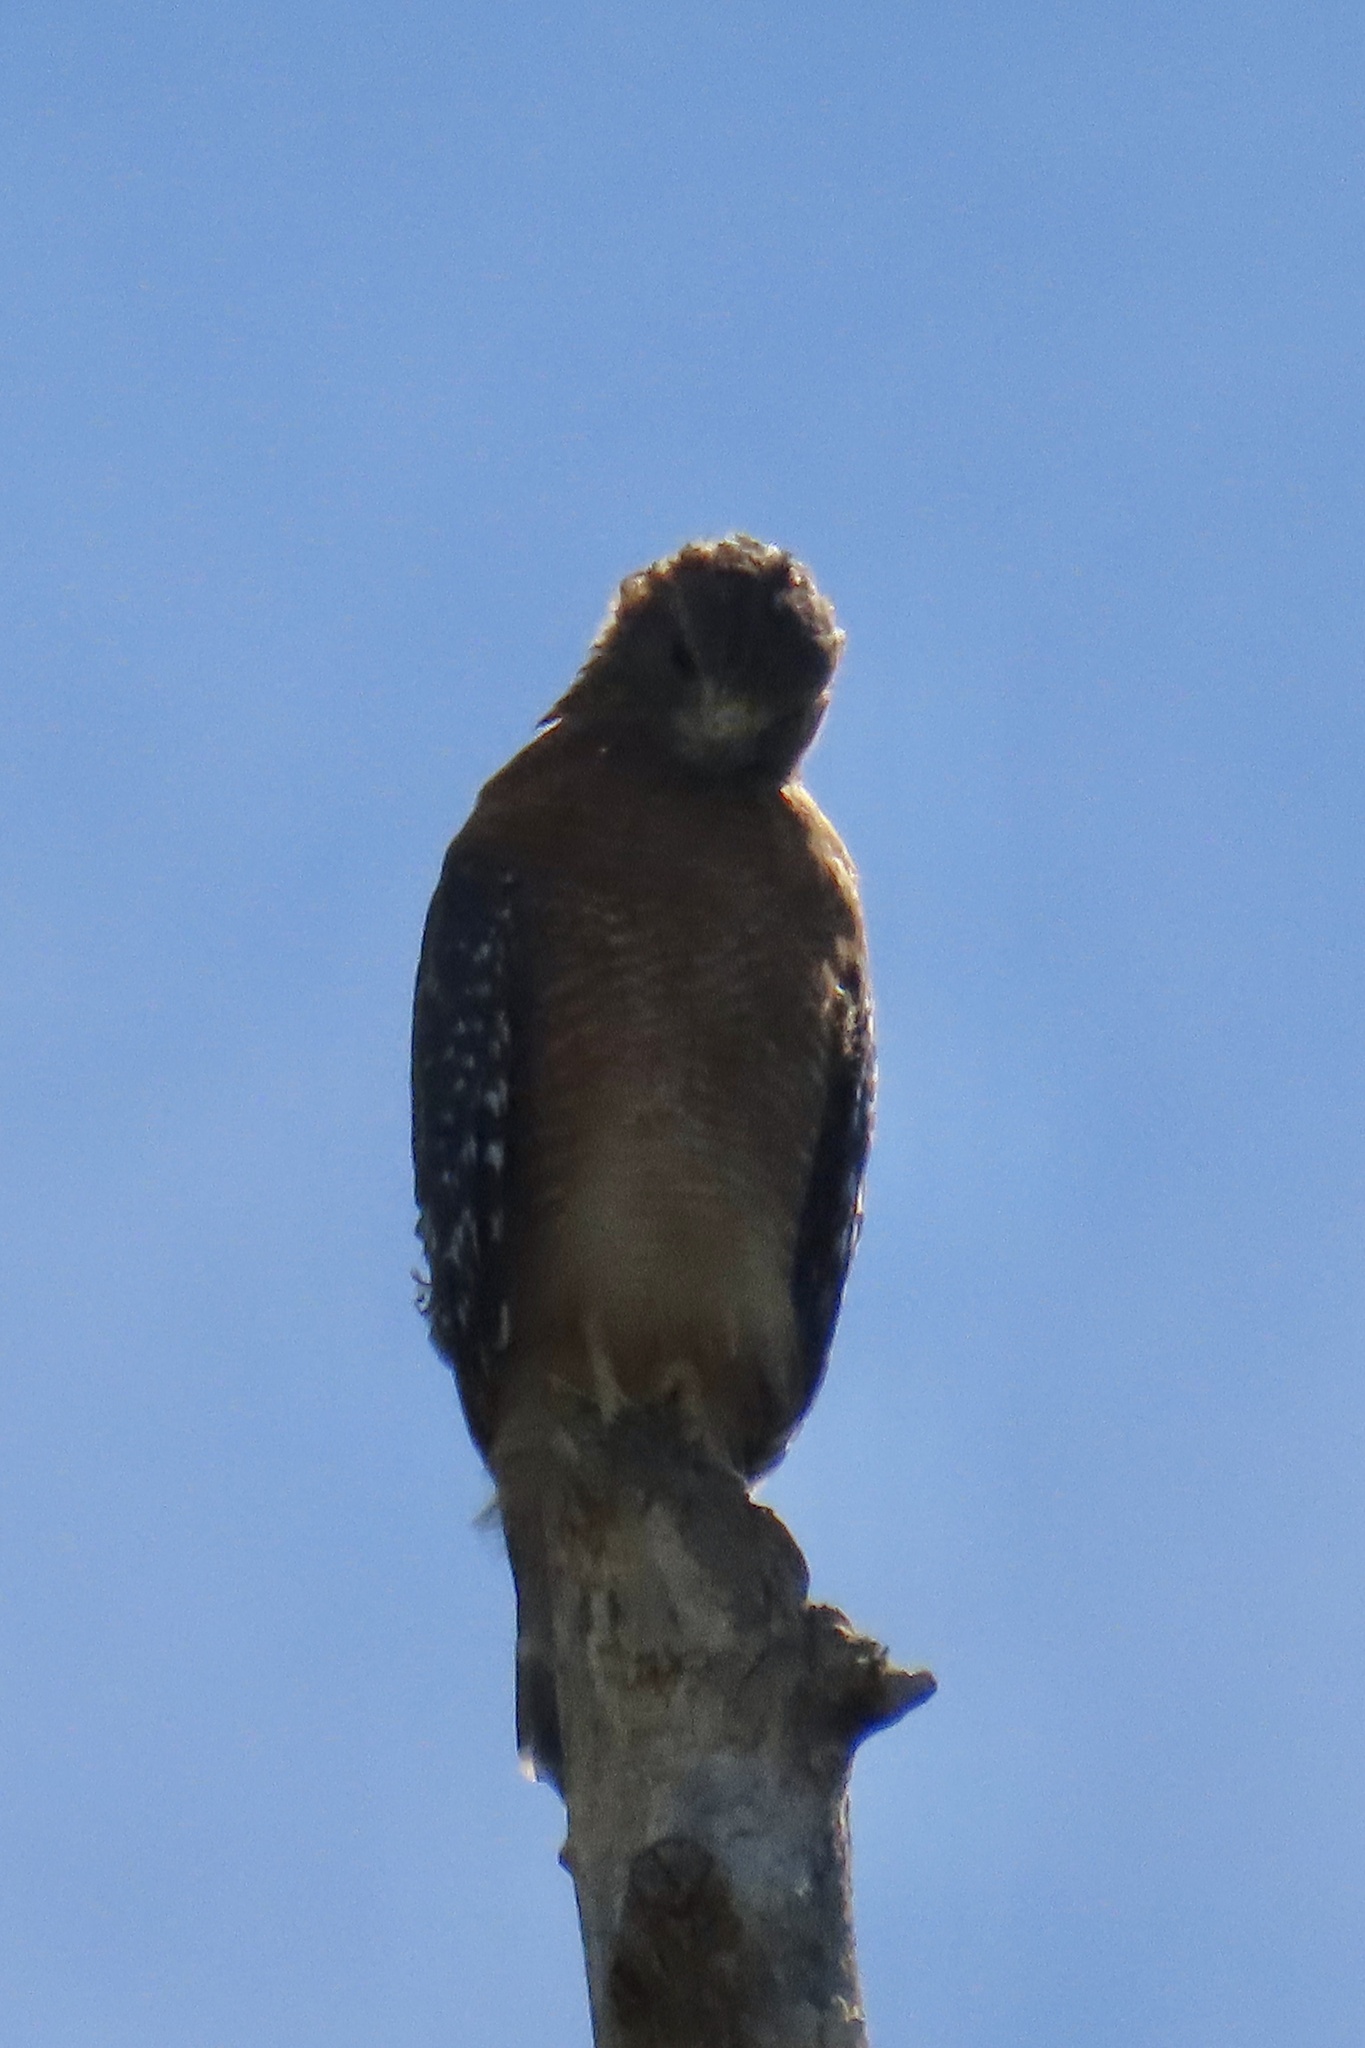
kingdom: Animalia
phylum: Chordata
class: Aves
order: Accipitriformes
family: Accipitridae
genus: Buteo
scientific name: Buteo lineatus
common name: Red-shouldered hawk
